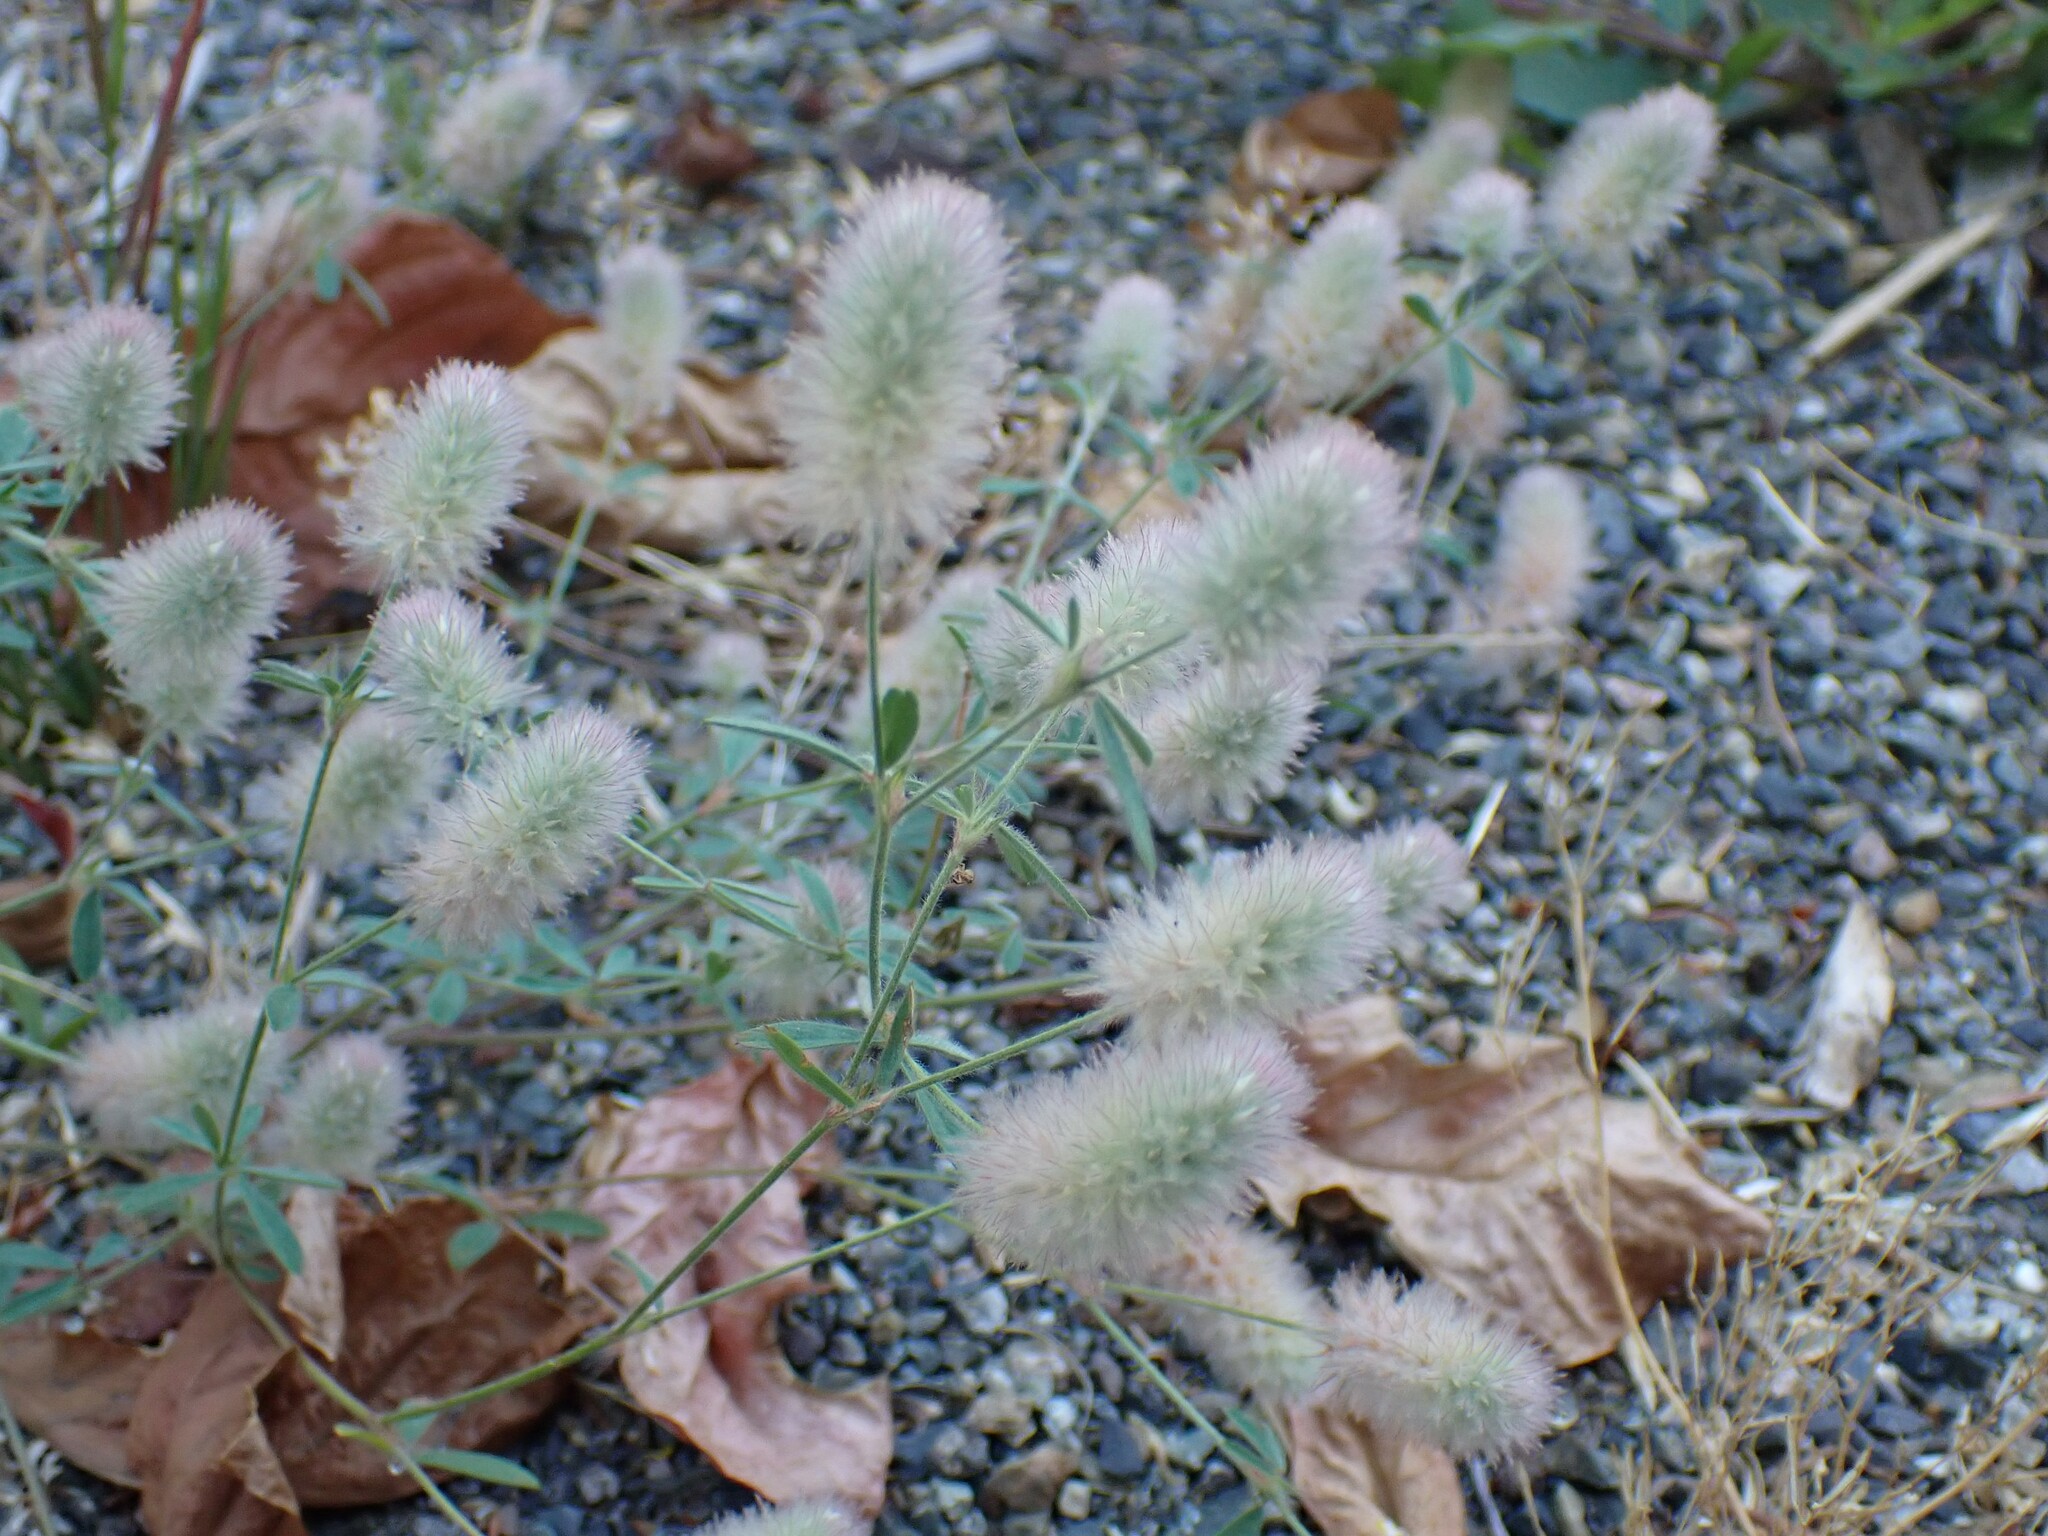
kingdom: Plantae
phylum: Tracheophyta
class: Magnoliopsida
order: Fabales
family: Fabaceae
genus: Trifolium
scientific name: Trifolium arvense
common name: Hare's-foot clover
